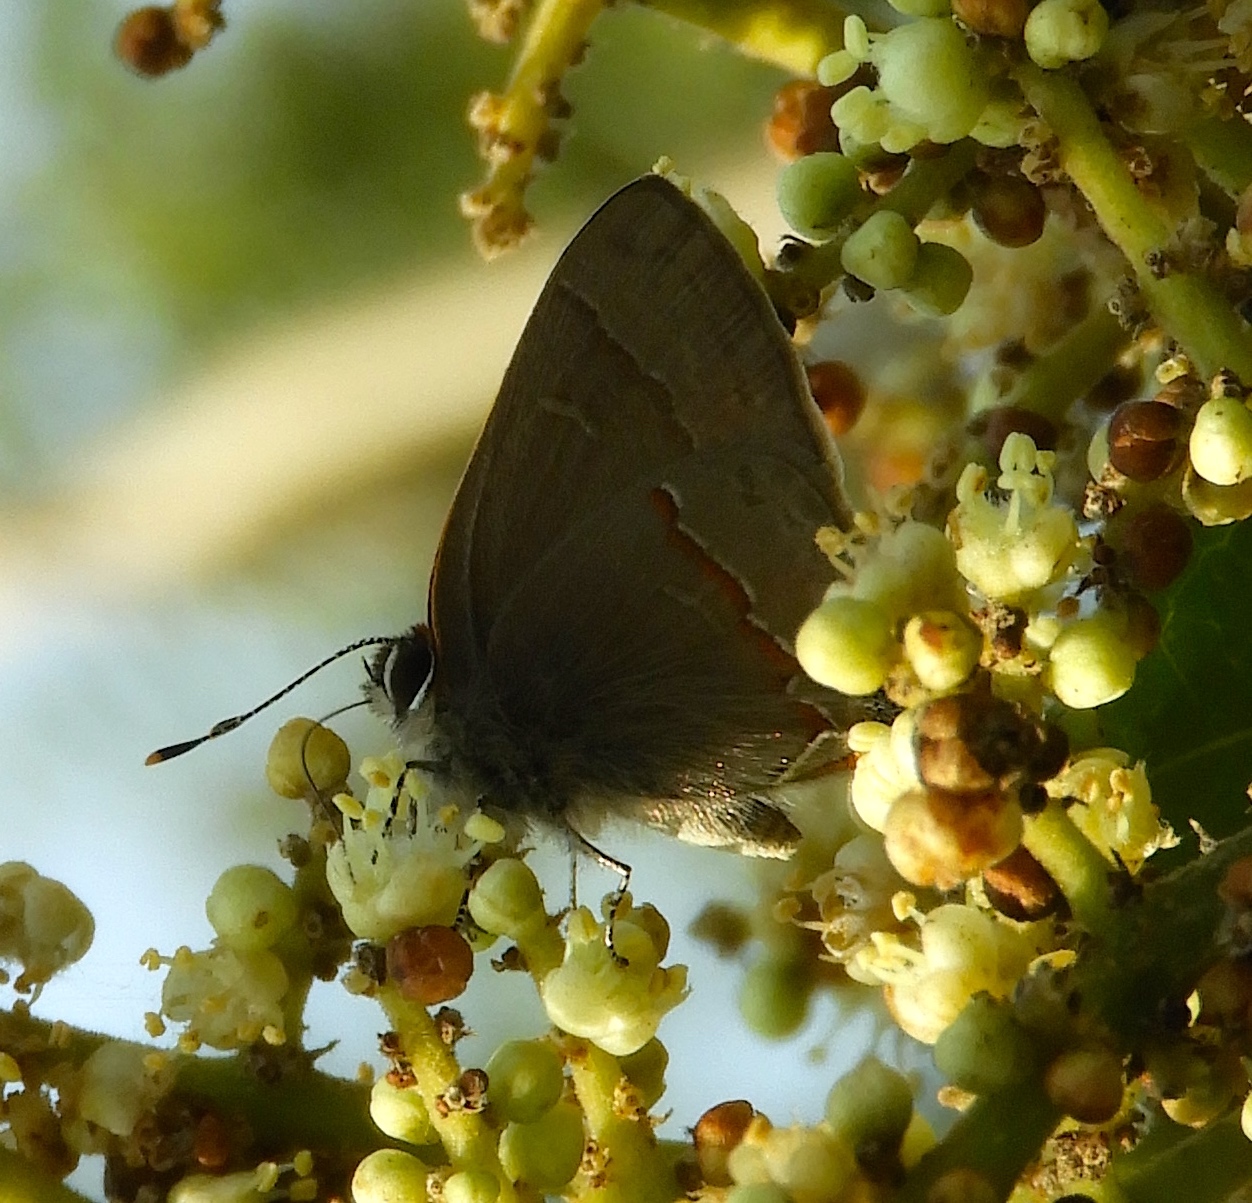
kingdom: Animalia
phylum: Arthropoda
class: Insecta
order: Lepidoptera
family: Lycaenidae
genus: Thecla
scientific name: Thecla joya
